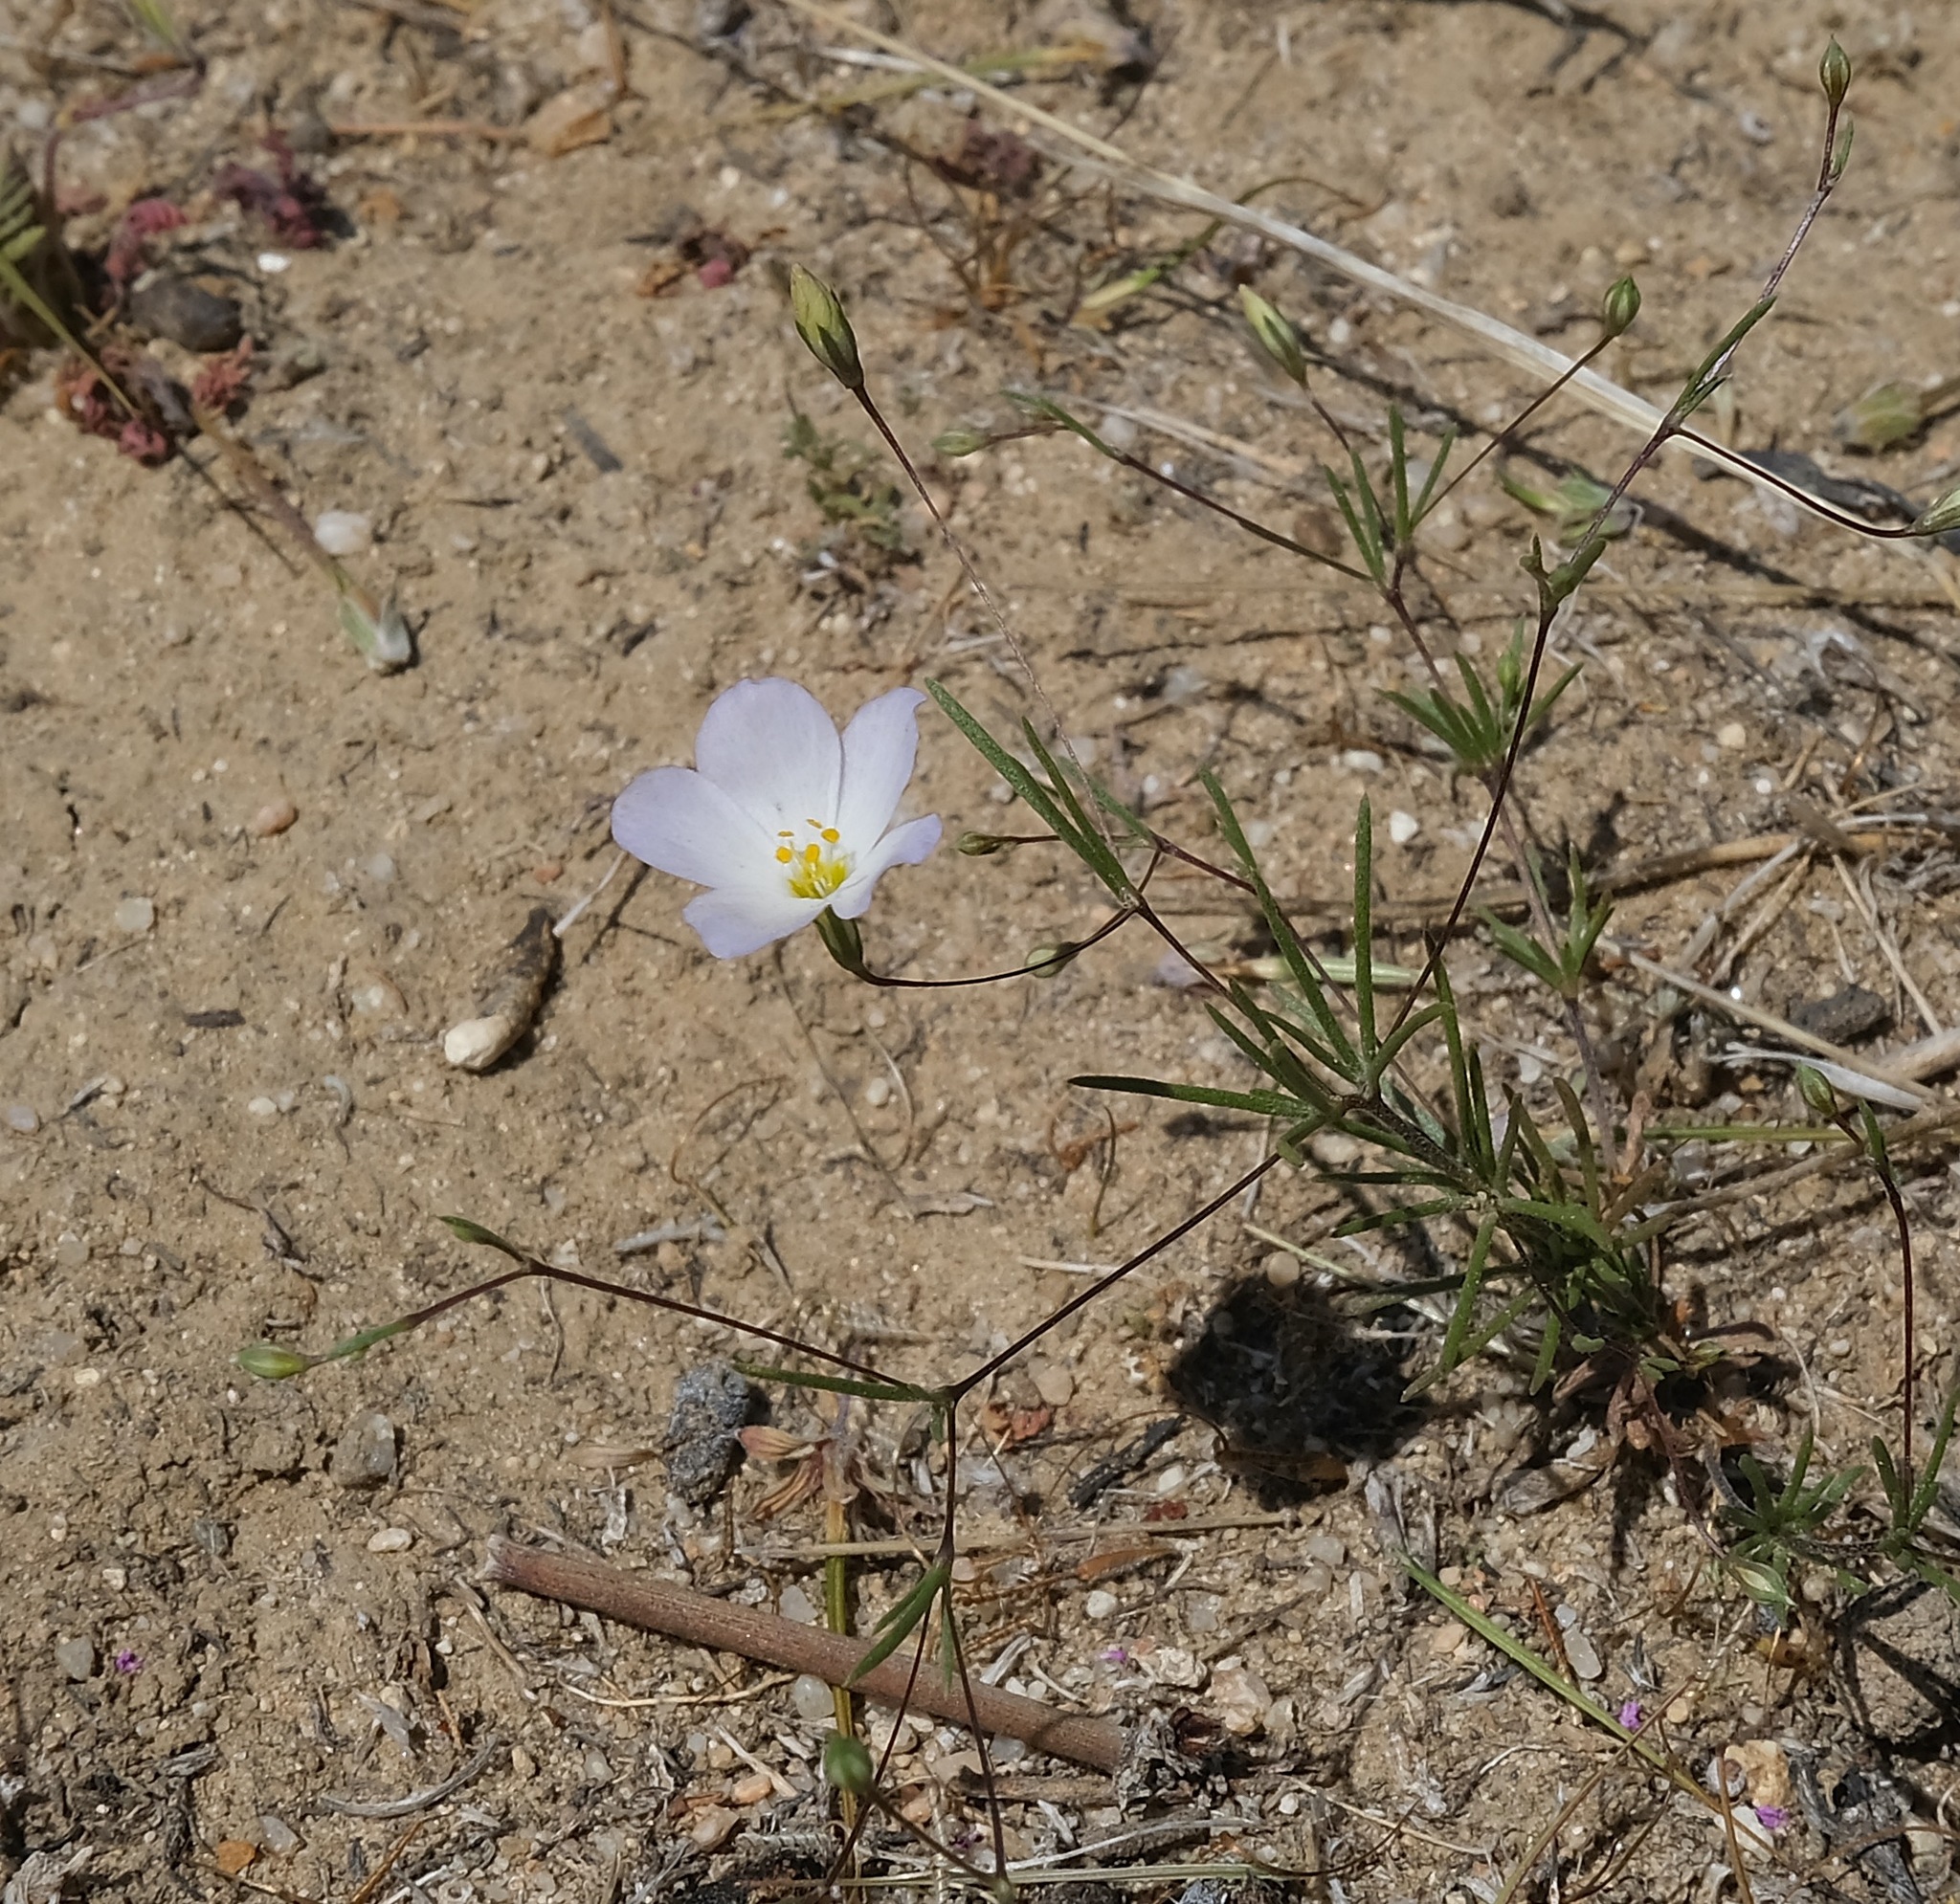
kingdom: Plantae
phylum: Tracheophyta
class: Magnoliopsida
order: Ericales
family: Polemoniaceae
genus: Leptosiphon
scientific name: Leptosiphon liniflorus
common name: Narrowflower flaxflower
